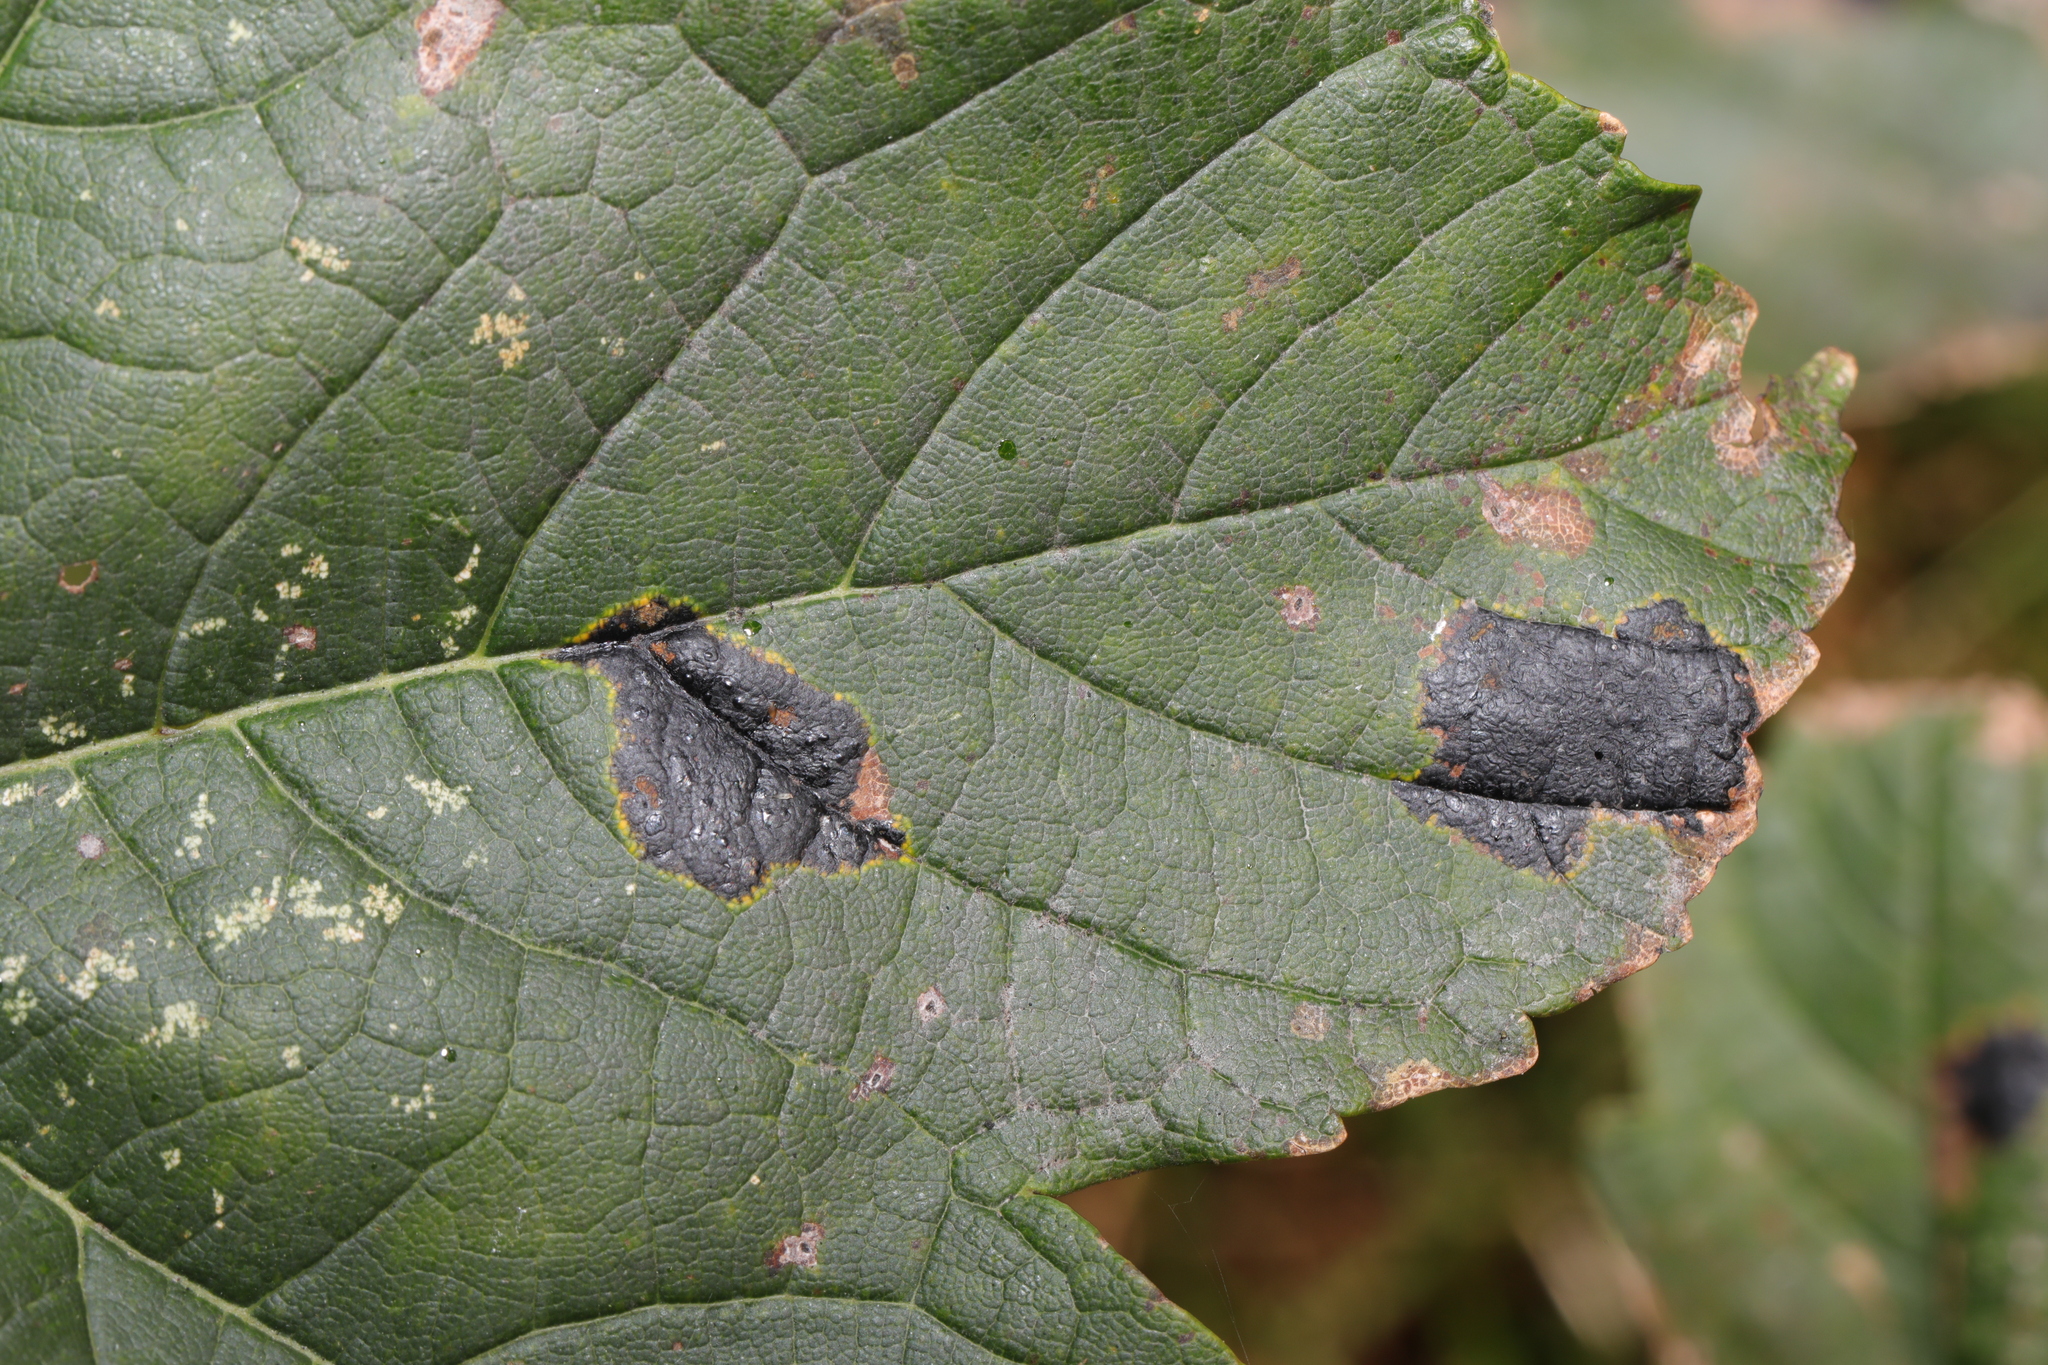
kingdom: Fungi
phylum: Ascomycota
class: Leotiomycetes
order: Rhytismatales
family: Rhytismataceae
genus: Rhytisma
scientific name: Rhytisma acerinum
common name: European tar spot
